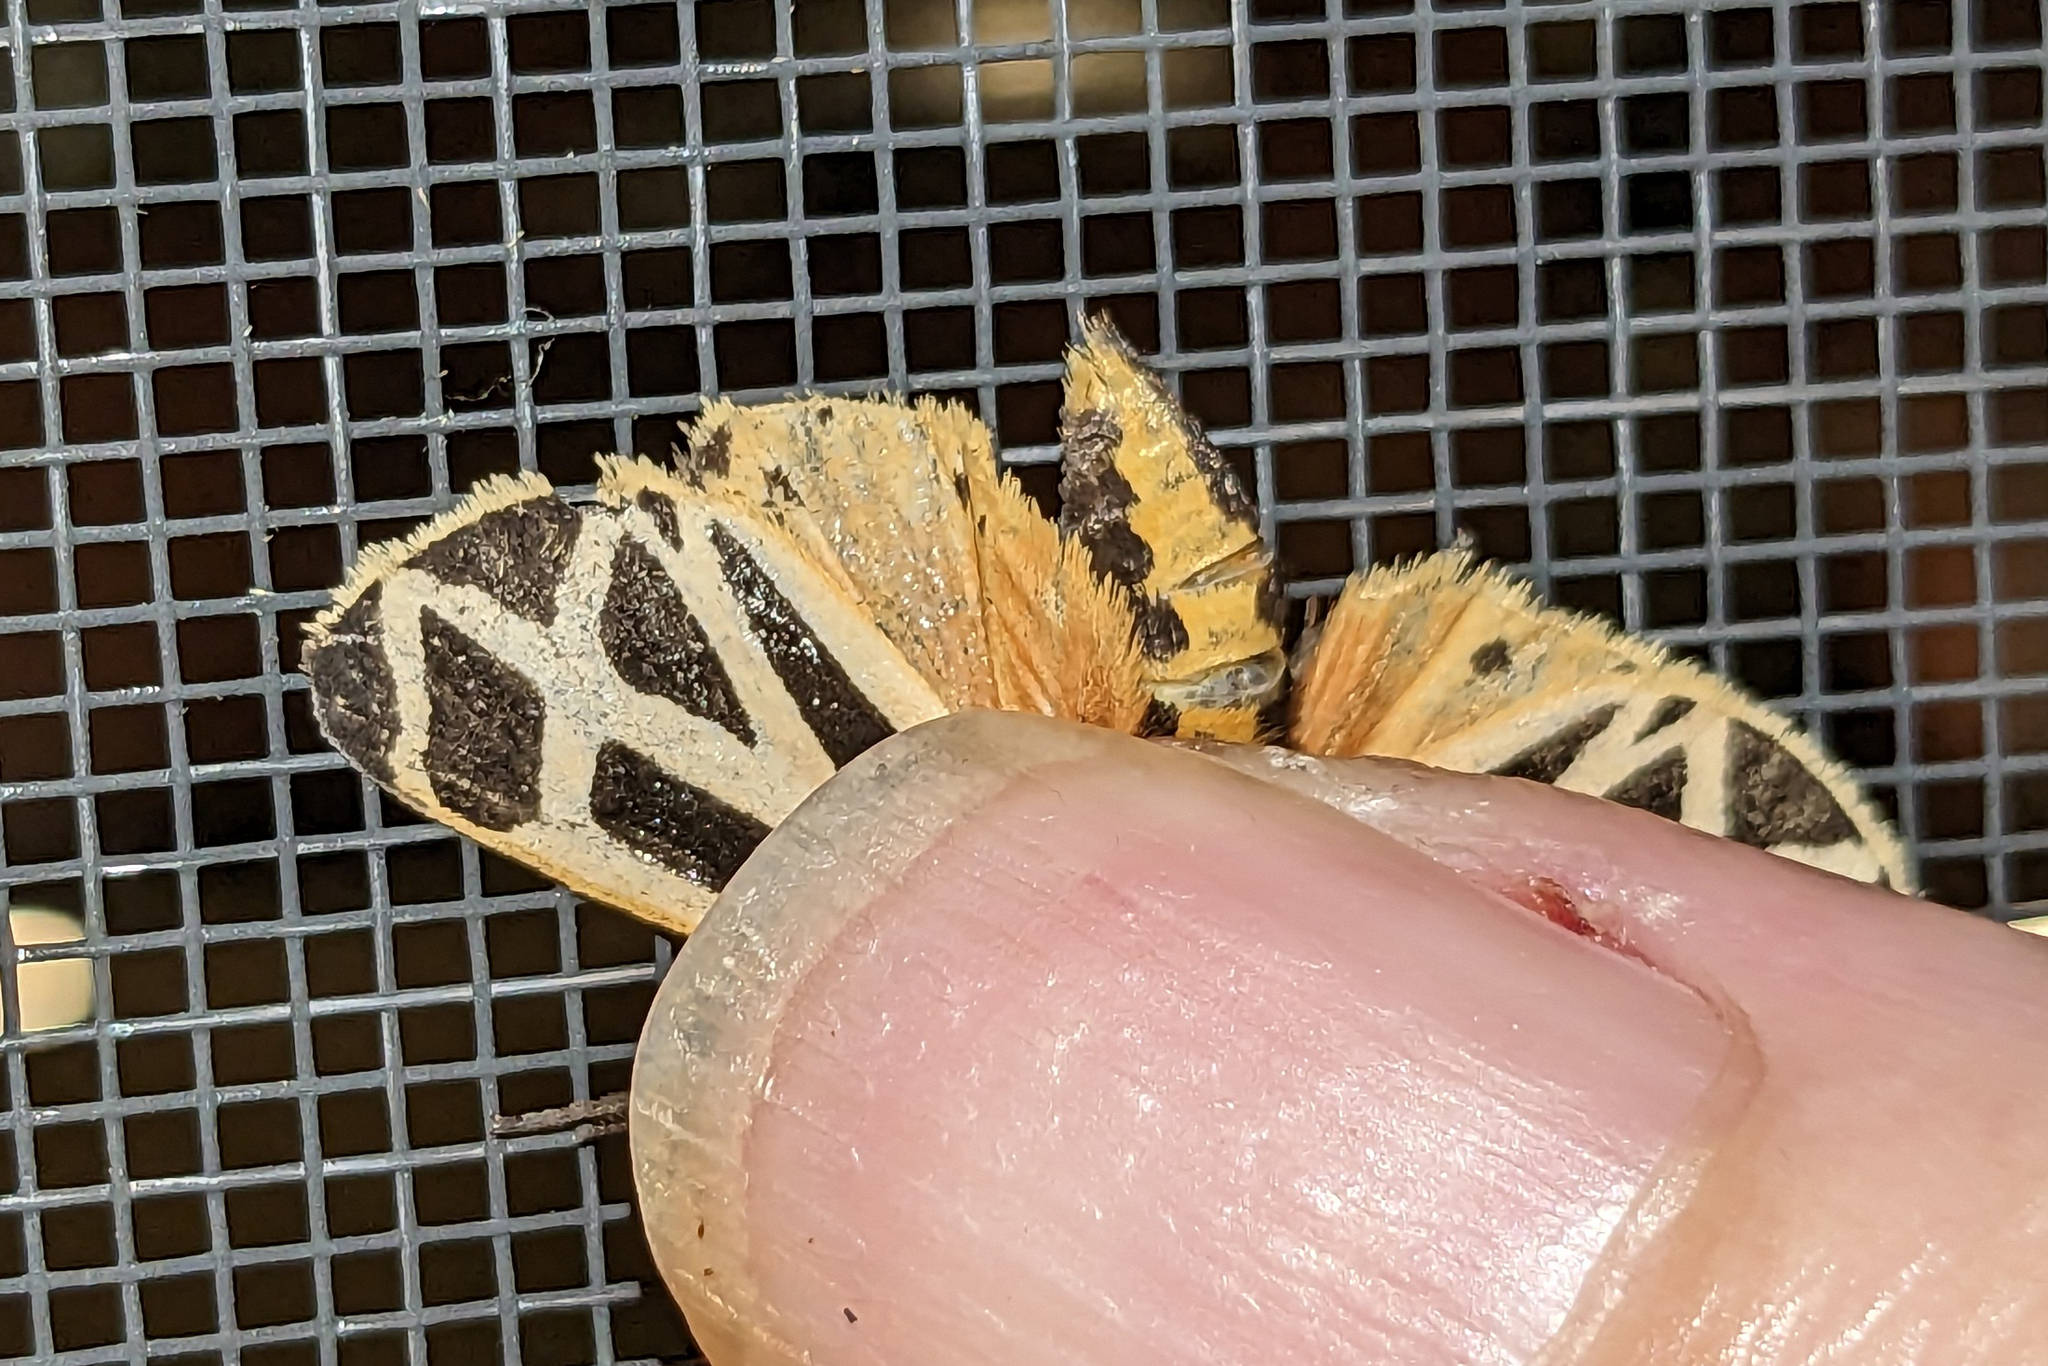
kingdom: Animalia
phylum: Arthropoda
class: Insecta
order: Lepidoptera
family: Erebidae
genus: Apantesis
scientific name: Apantesis phalerata
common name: Harnessed tiger moth
